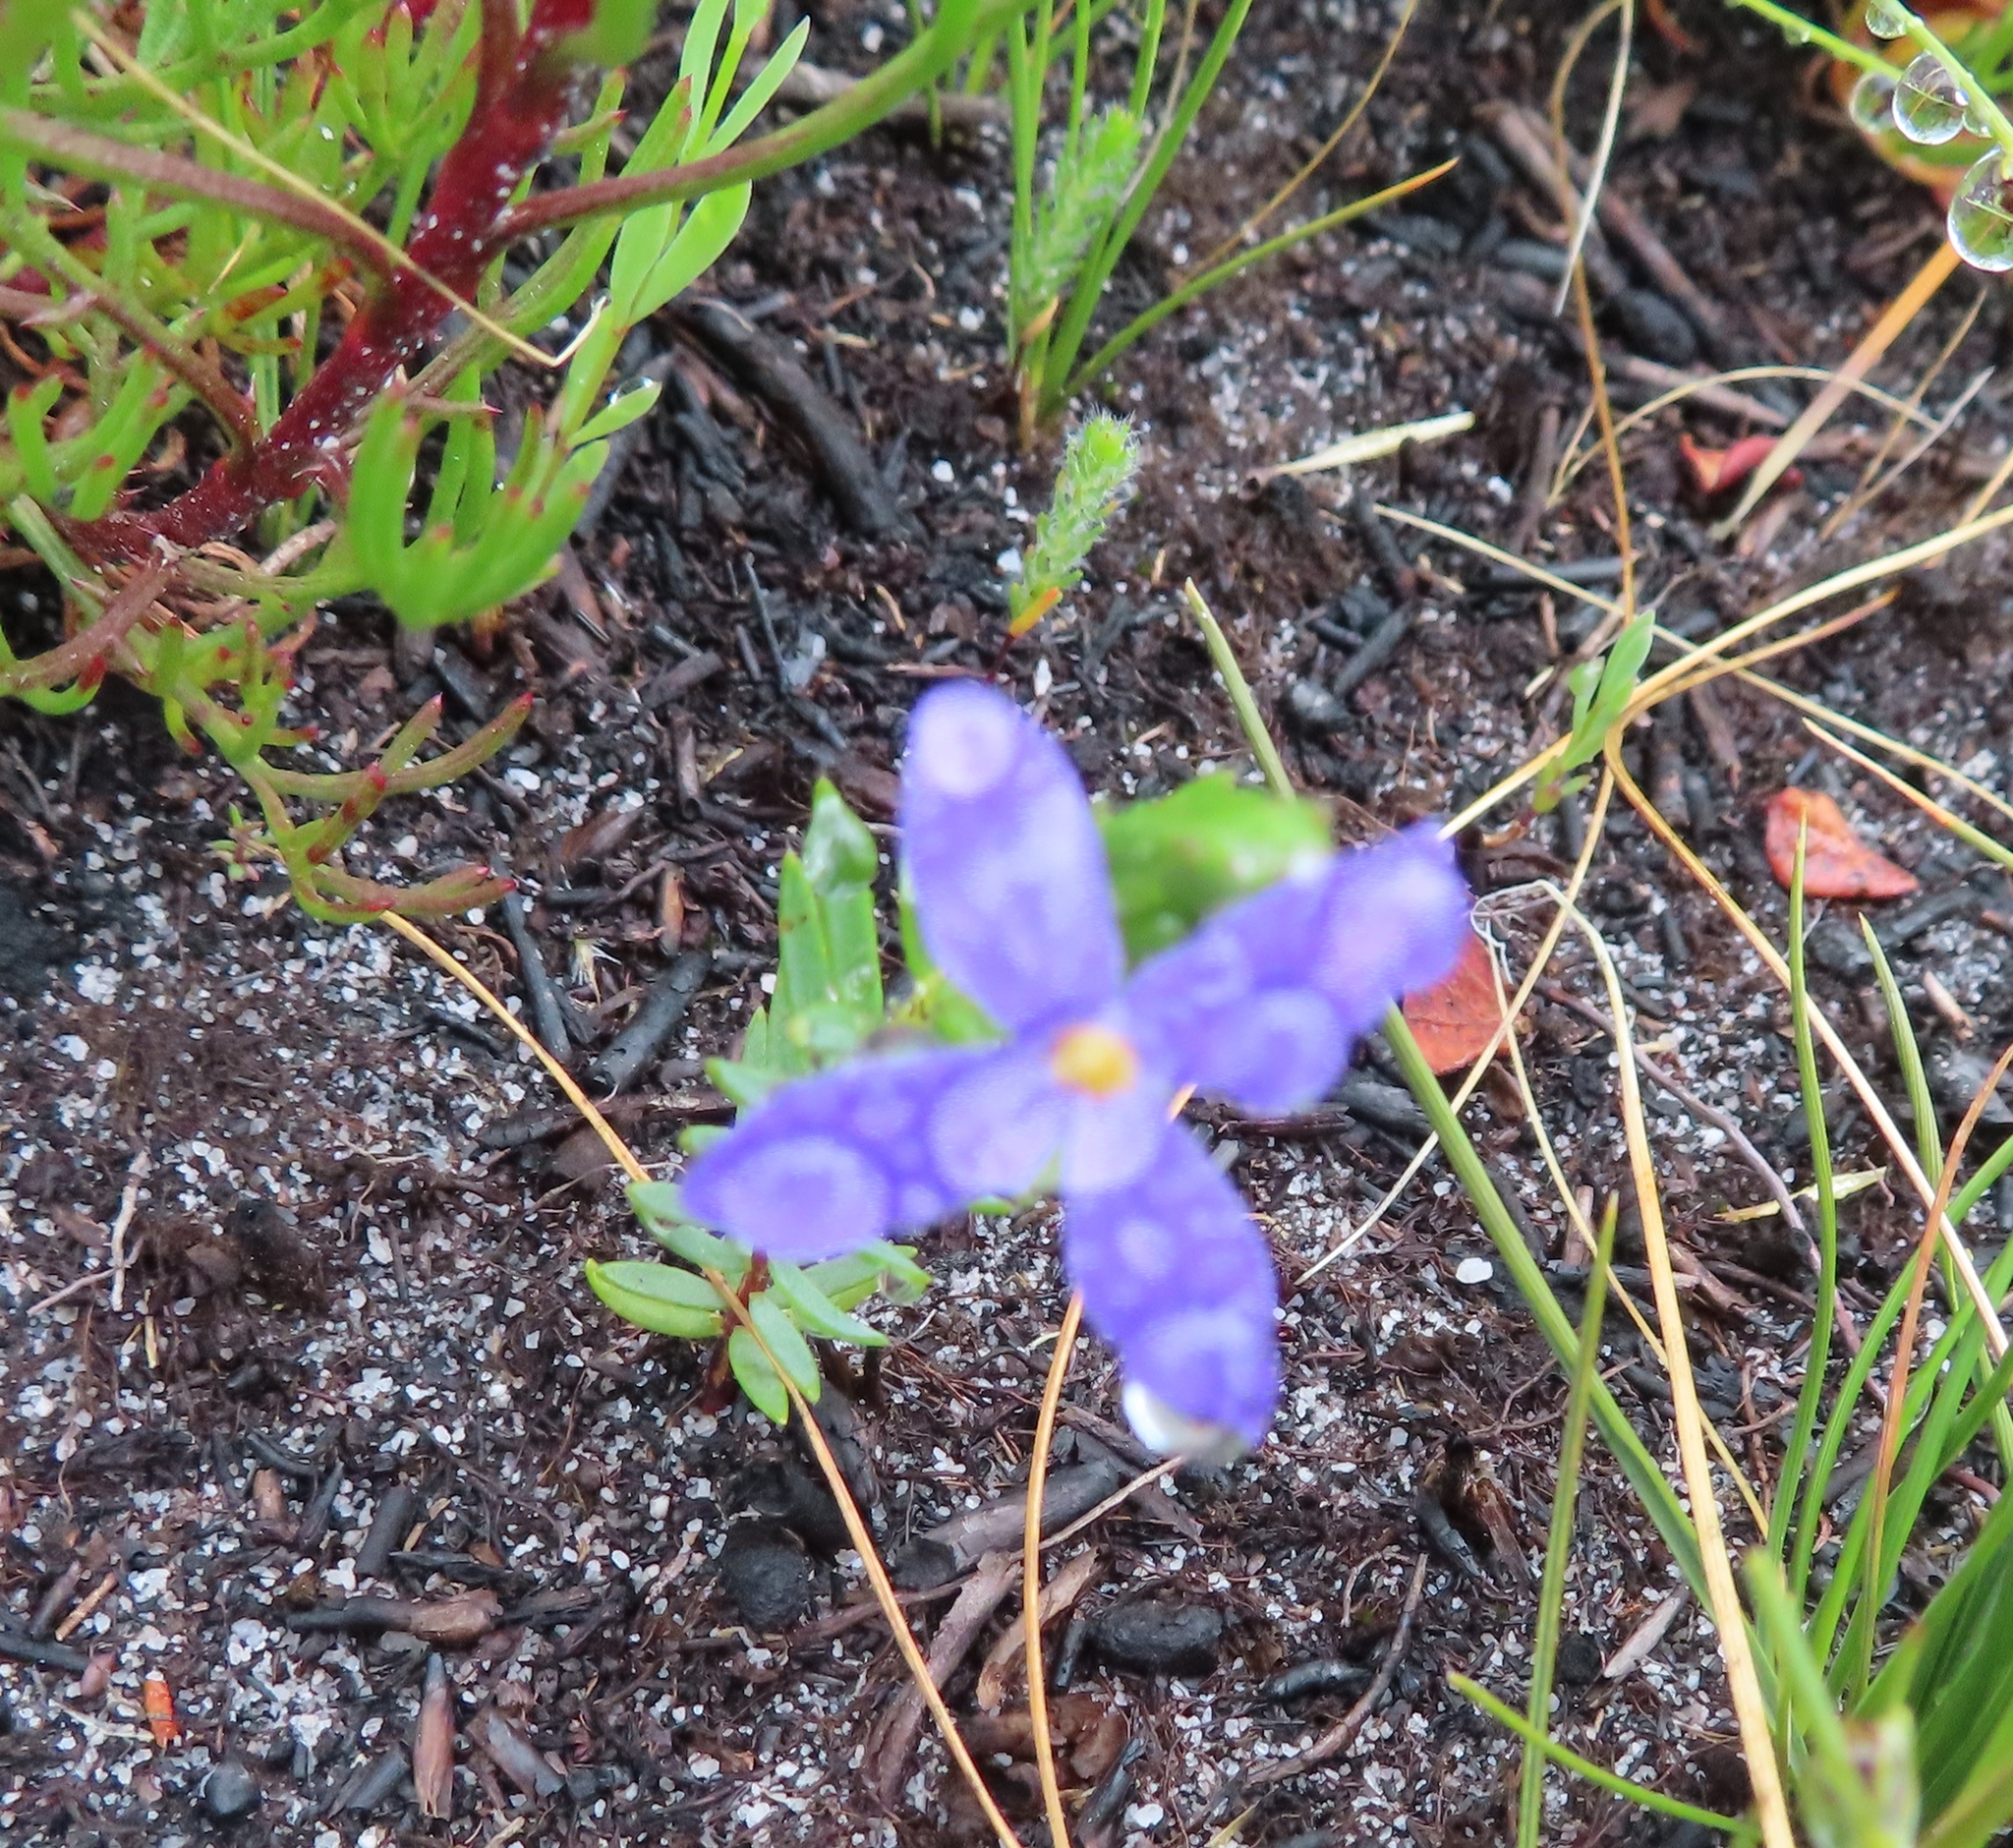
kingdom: Plantae
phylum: Tracheophyta
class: Magnoliopsida
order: Malvales
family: Thymelaeaceae
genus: Gnidia
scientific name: Gnidia penicillata
